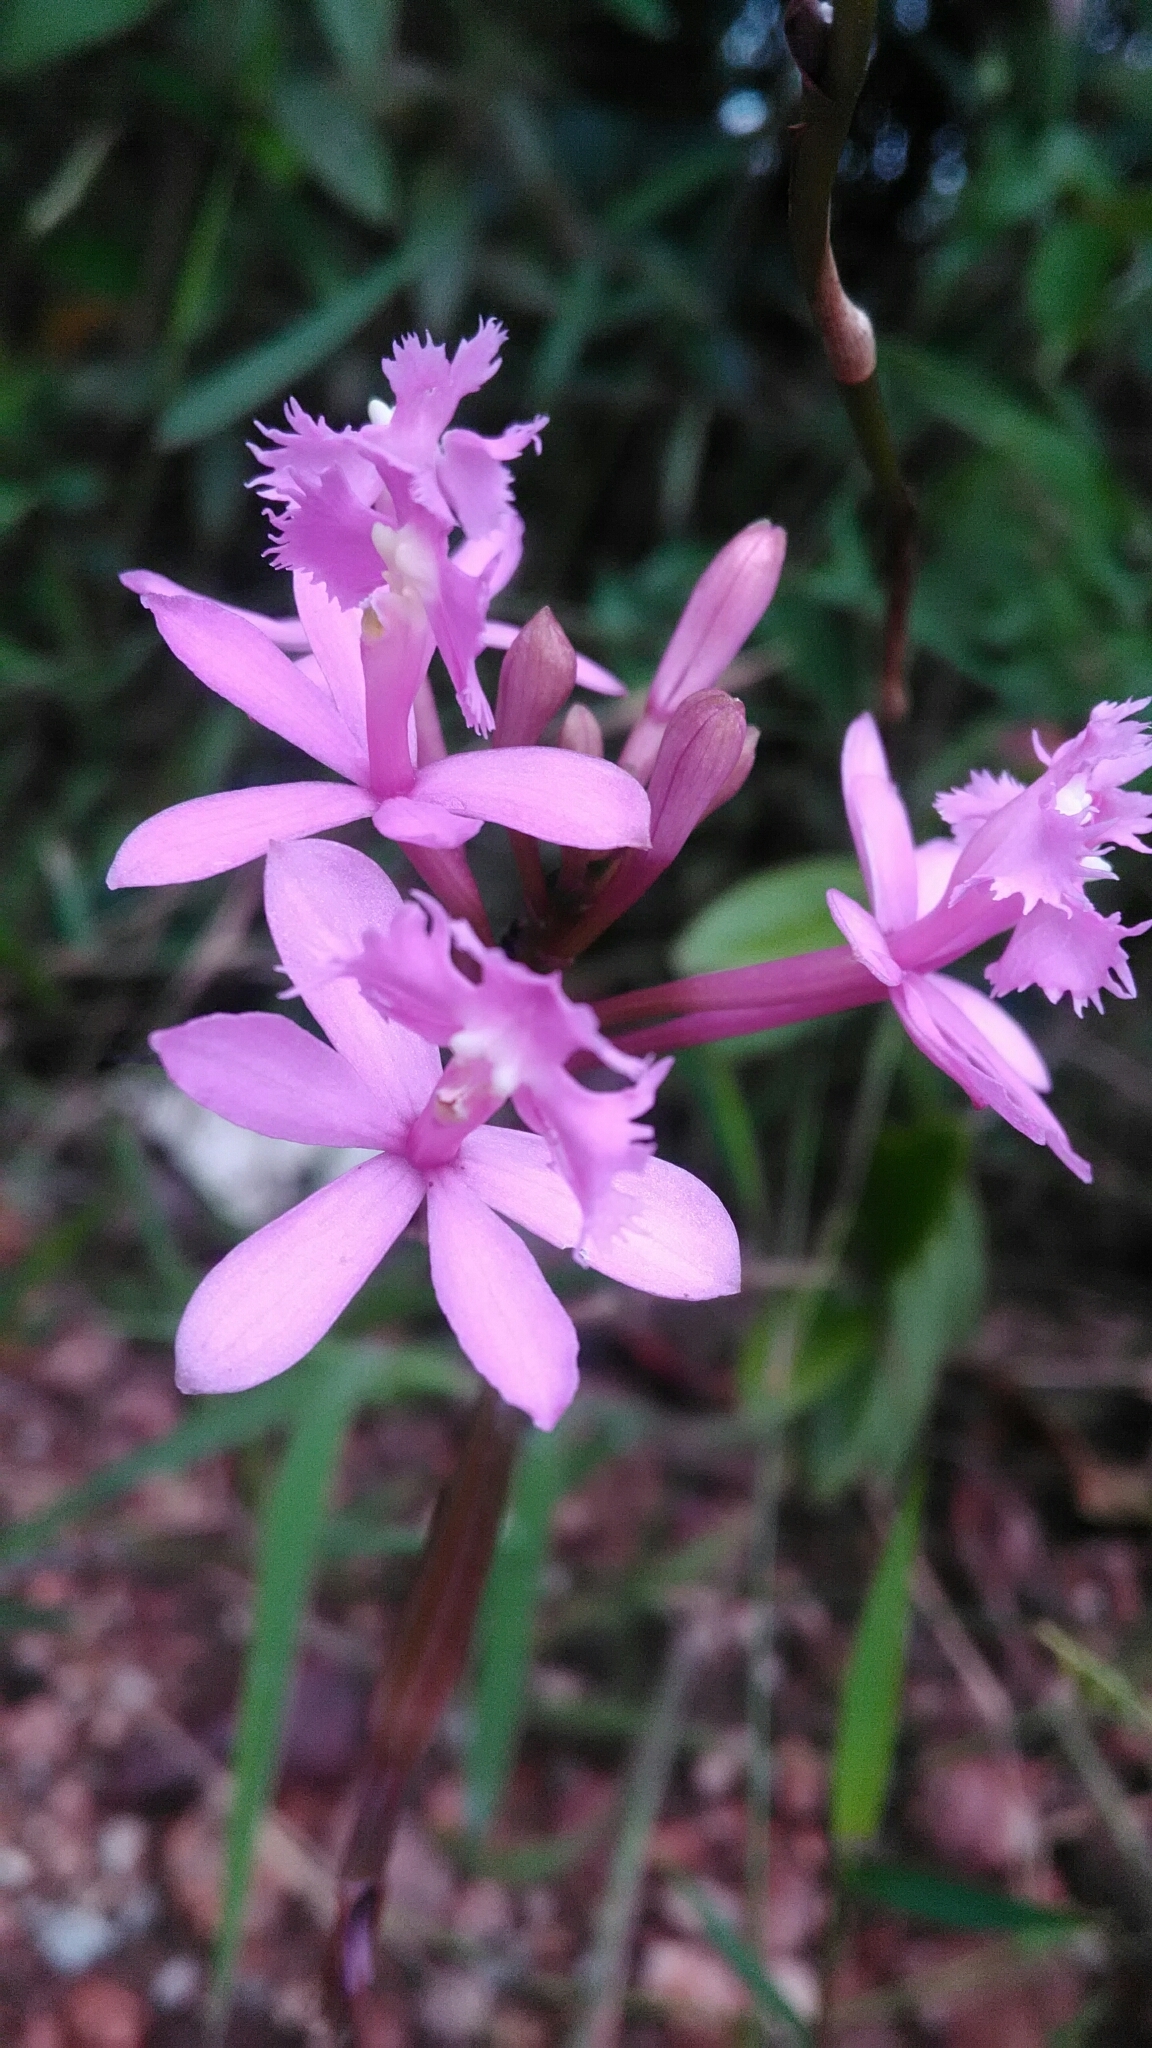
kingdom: Plantae
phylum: Tracheophyta
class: Liliopsida
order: Asparagales
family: Orchidaceae
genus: Epidendrum
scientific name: Epidendrum denticulatum
